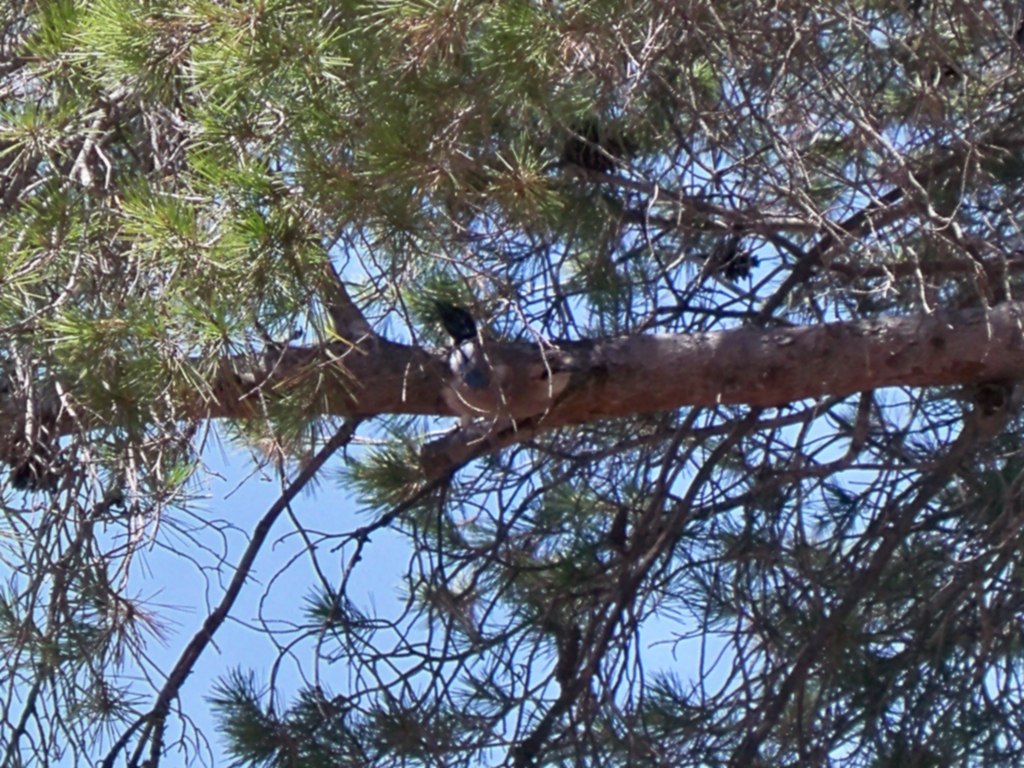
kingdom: Animalia
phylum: Chordata
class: Aves
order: Passeriformes
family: Corvidae
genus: Garrulus
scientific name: Garrulus glandarius
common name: Eurasian jay
